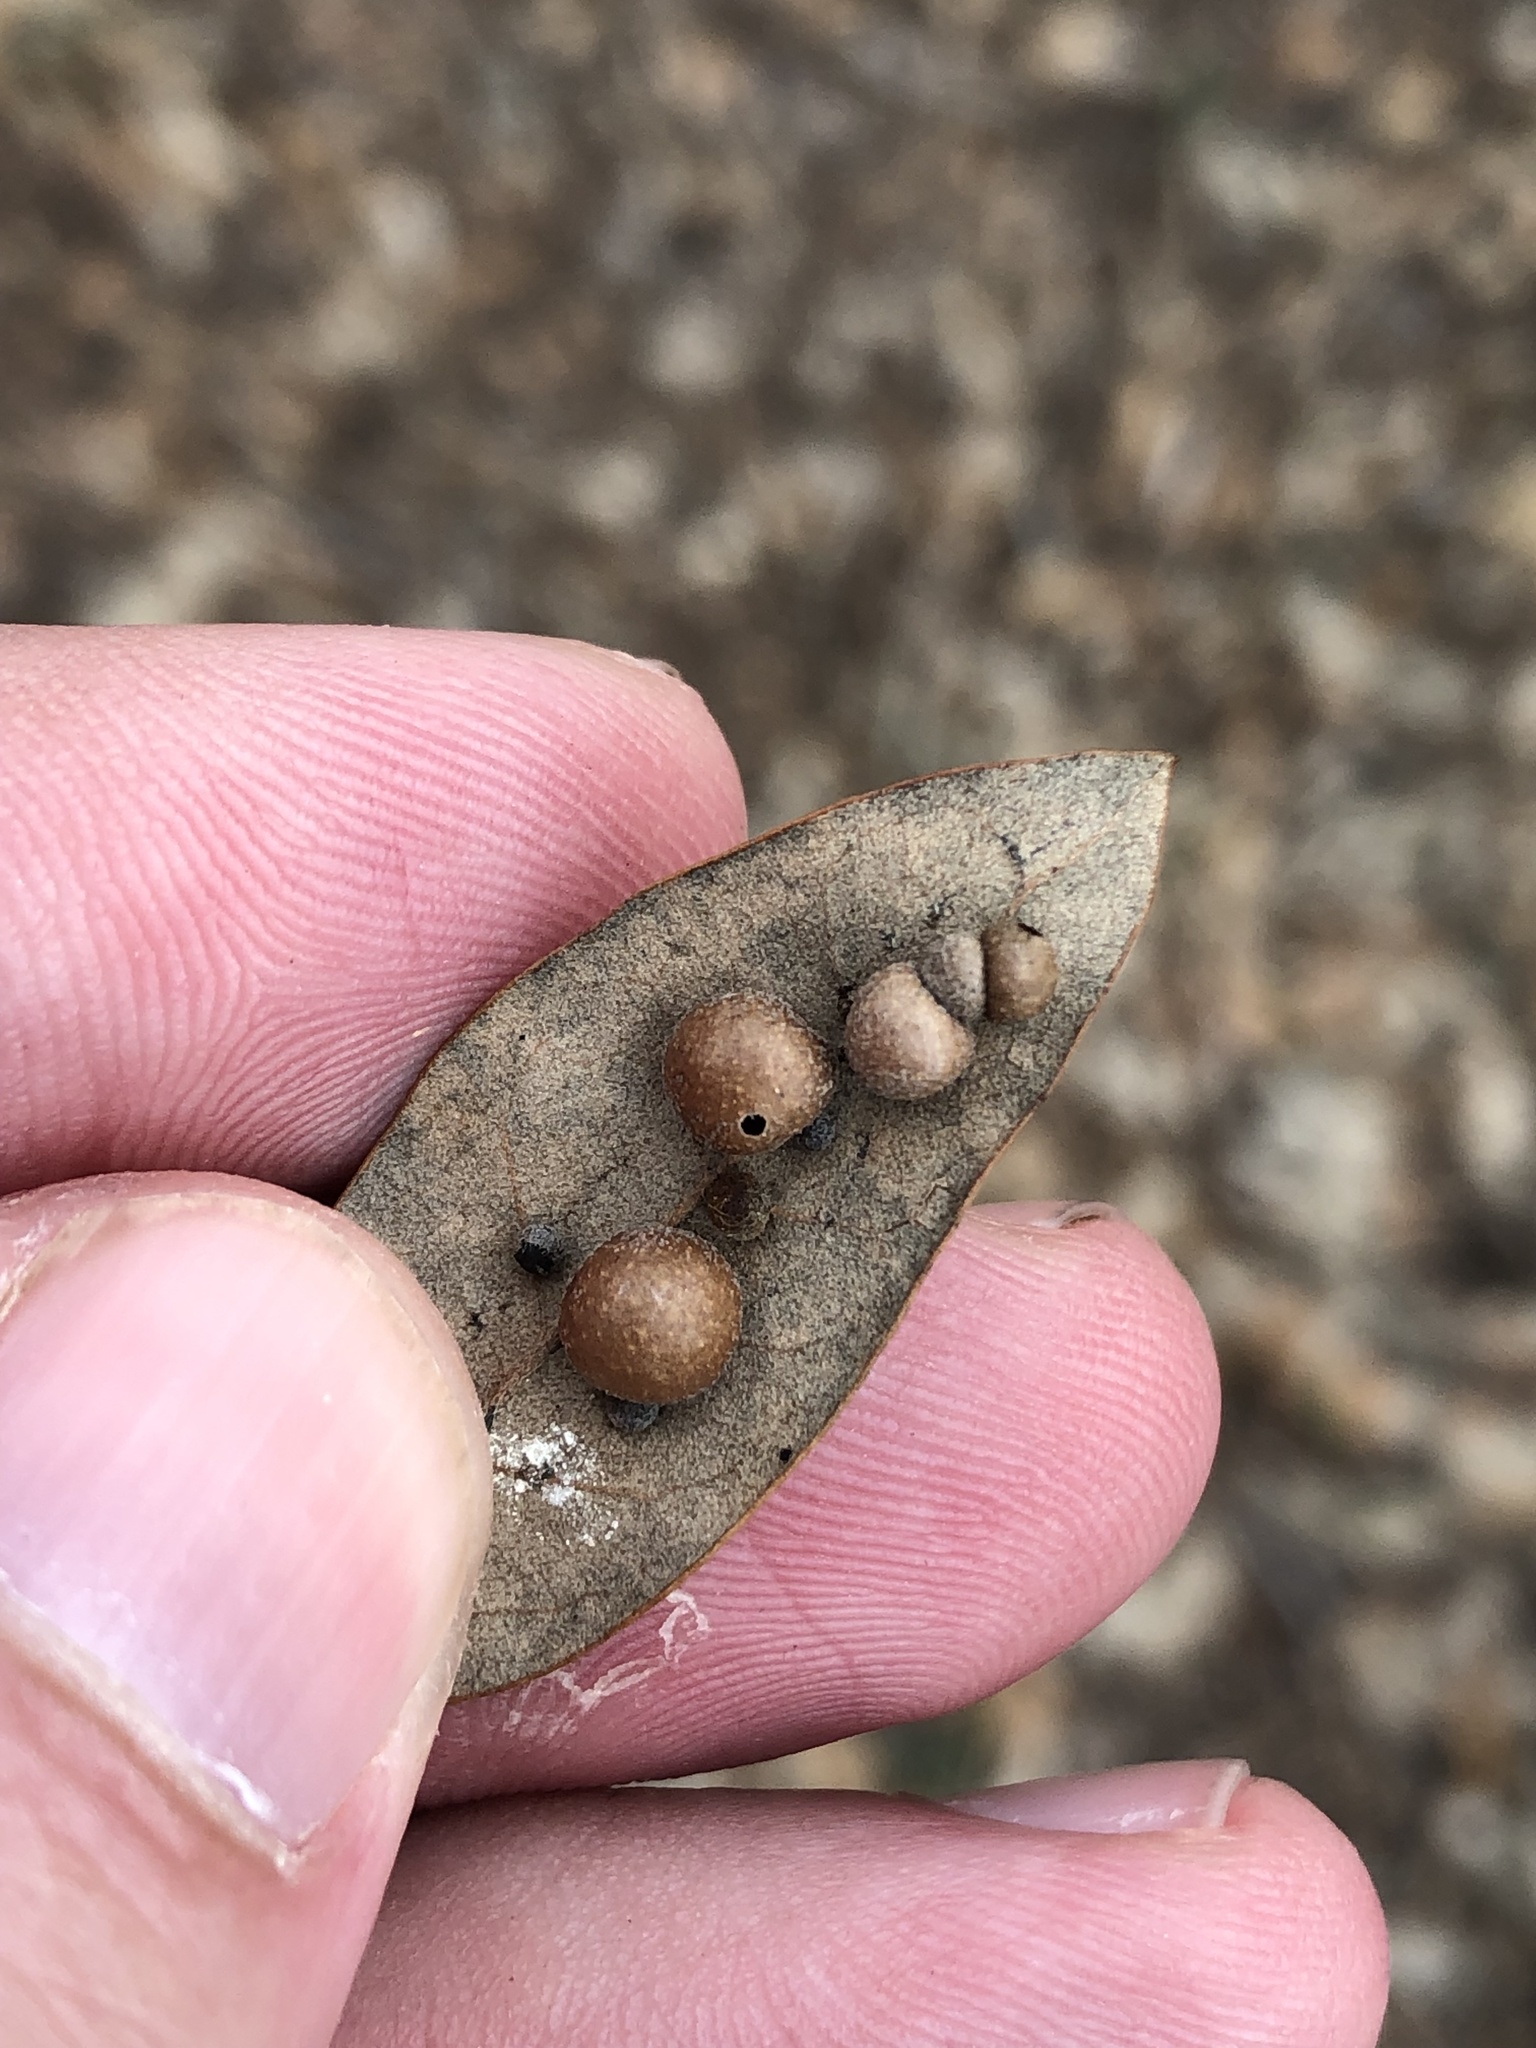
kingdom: Animalia
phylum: Arthropoda
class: Insecta
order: Hymenoptera
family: Cynipidae
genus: Belonocnema
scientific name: Belonocnema kinseyi
